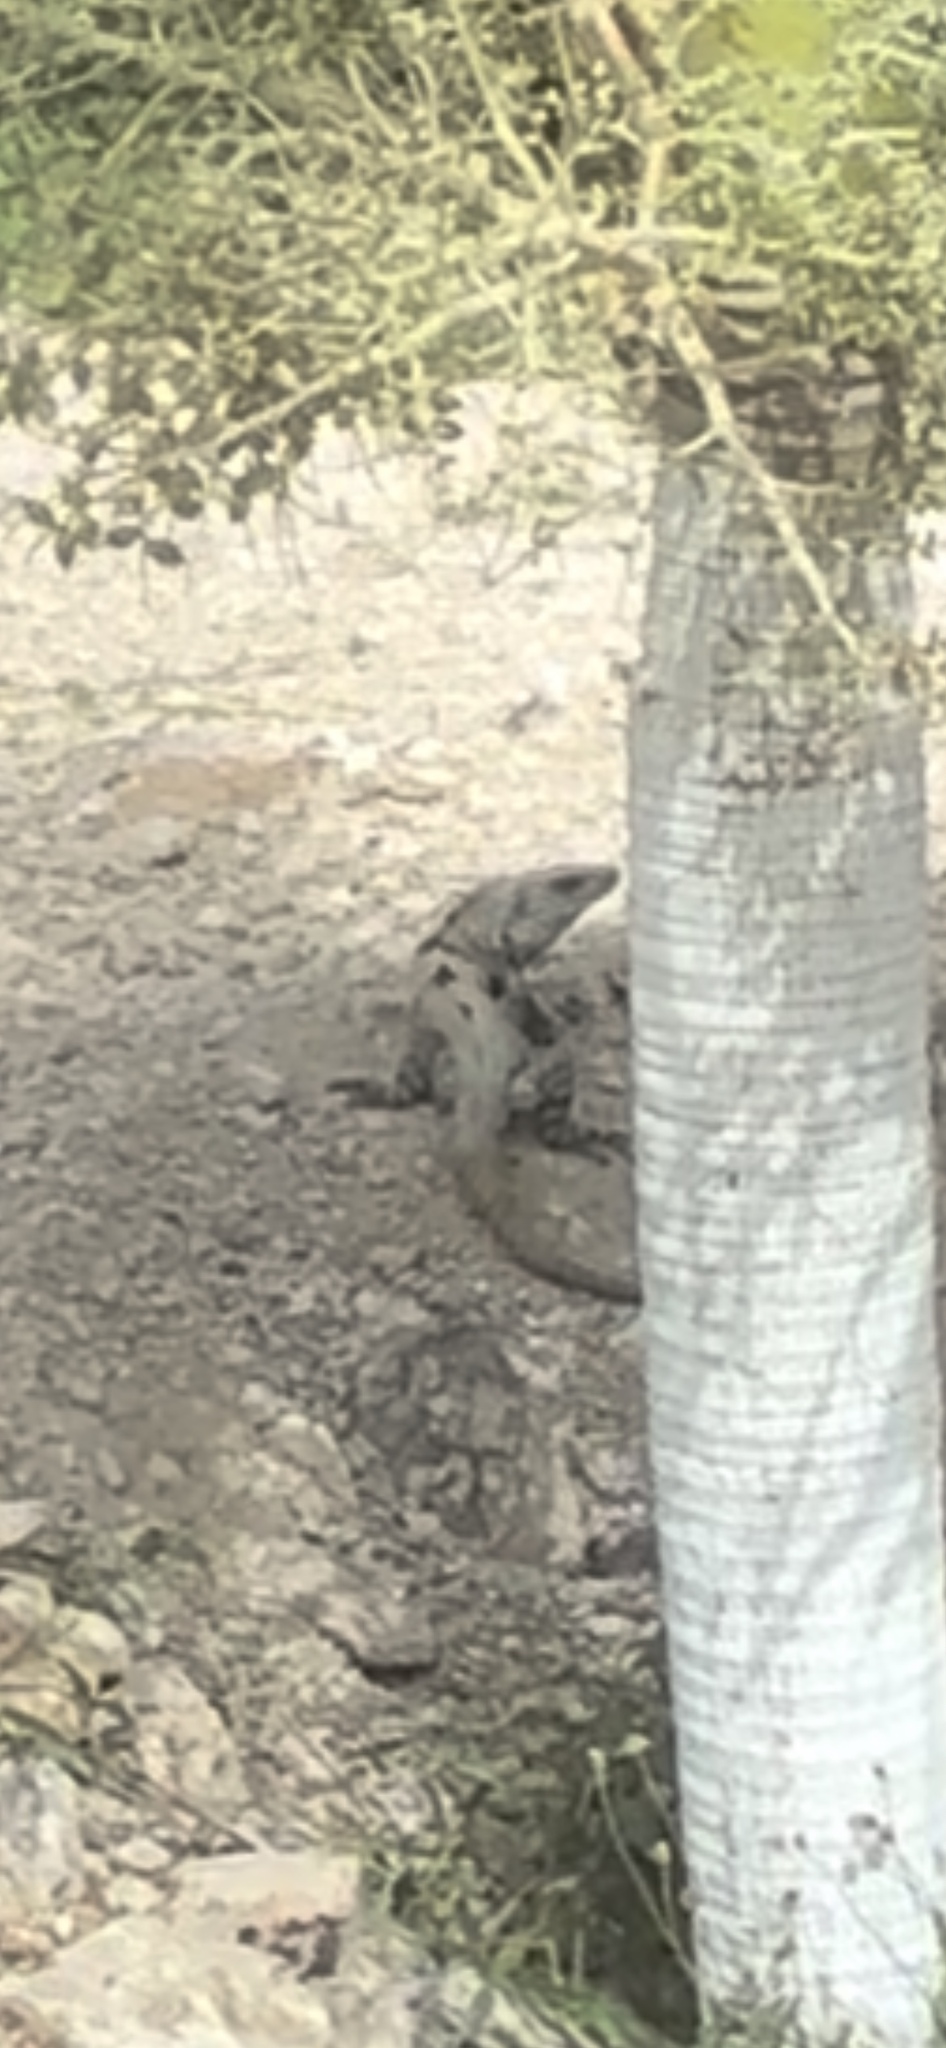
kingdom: Animalia
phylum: Chordata
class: Squamata
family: Iguanidae
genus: Ctenosaura
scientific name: Ctenosaura similis
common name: Black spiny-tailed iguana
